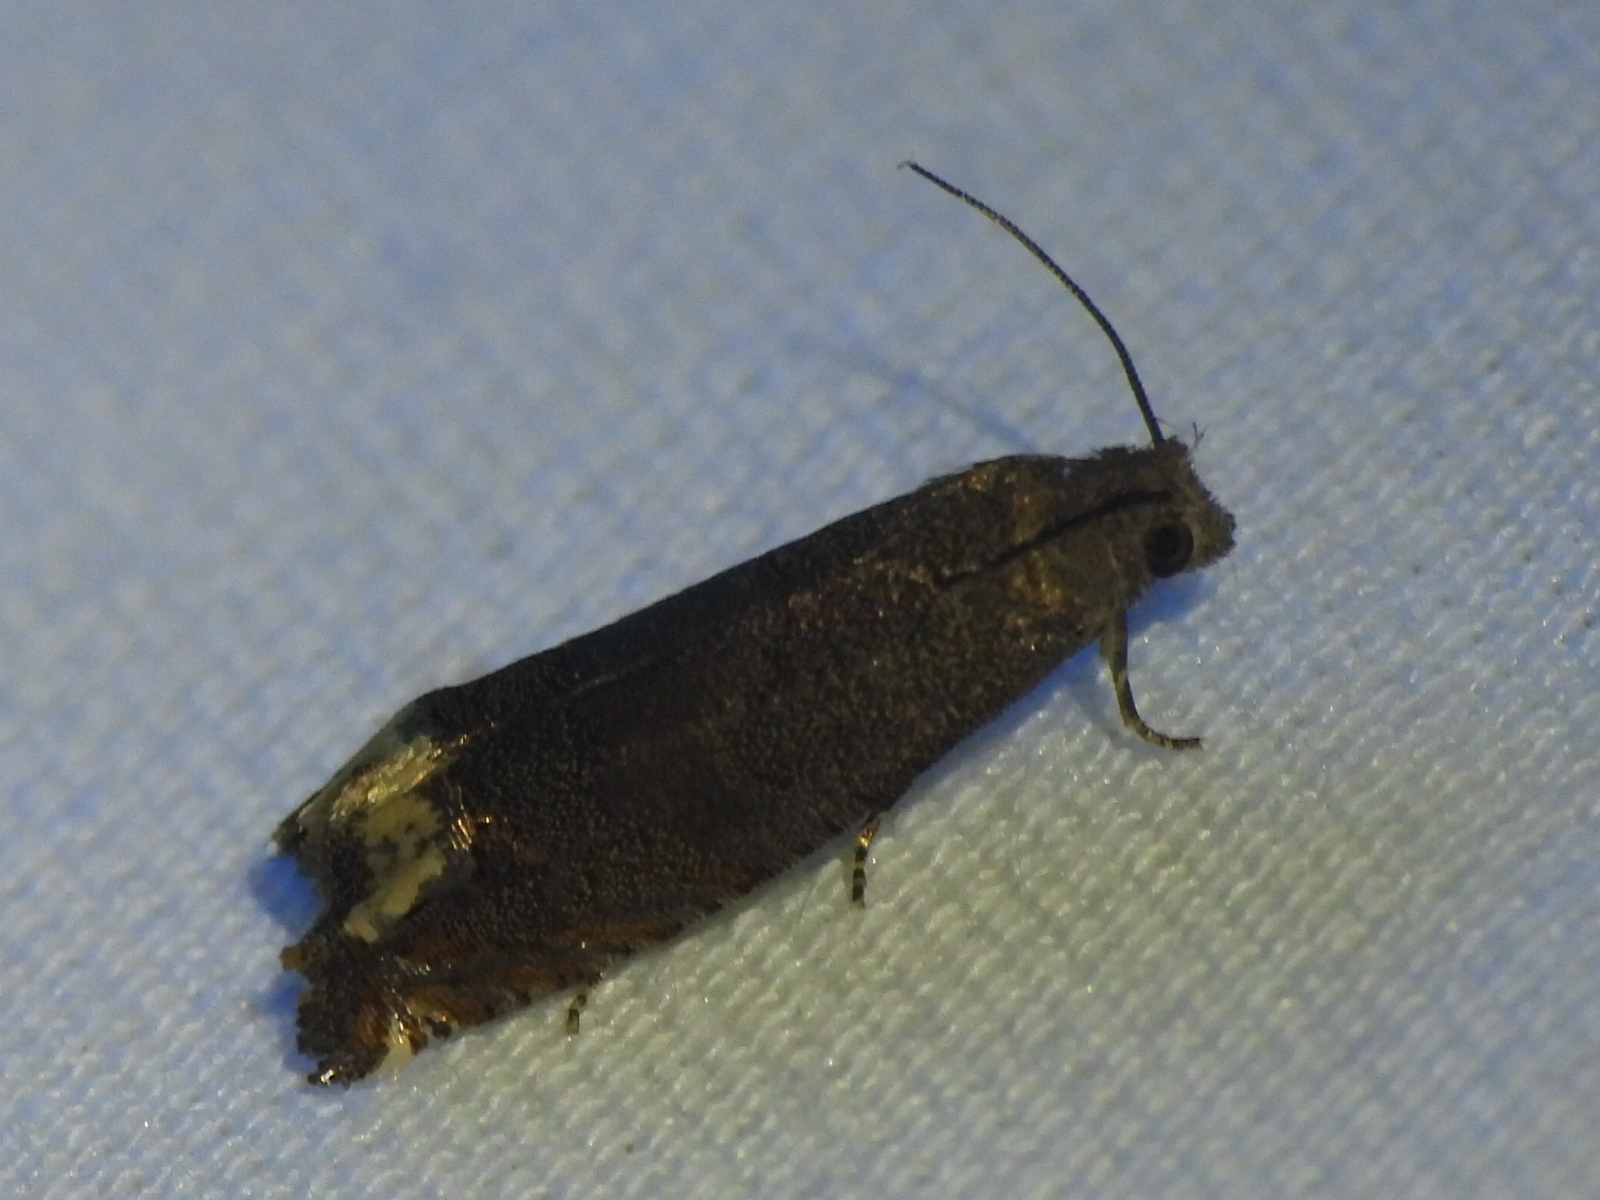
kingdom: Animalia
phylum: Arthropoda
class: Insecta
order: Lepidoptera
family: Tortricidae
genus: Epiblema
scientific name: Epiblema strenuana
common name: Ragweed borer moth
